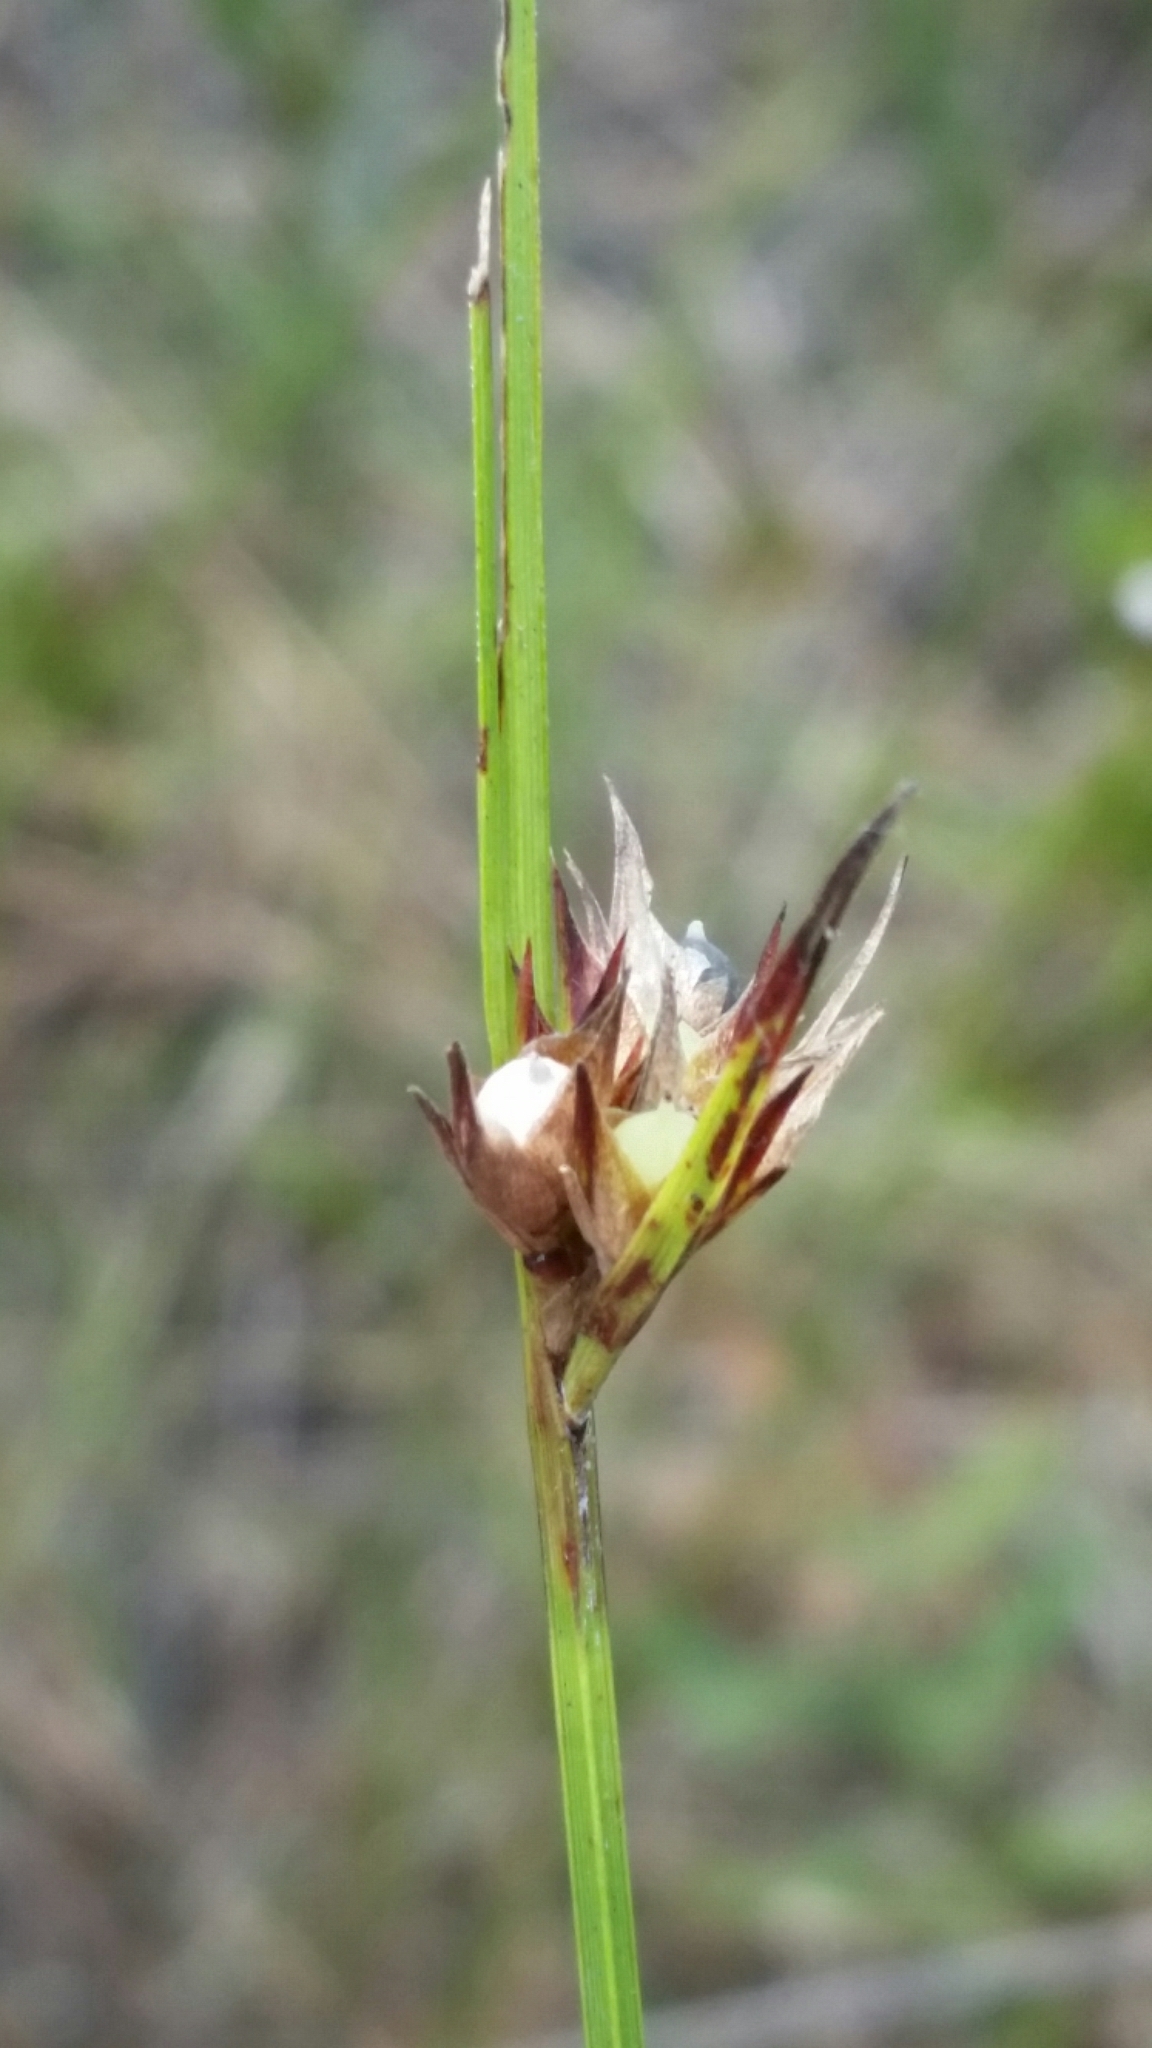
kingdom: Plantae
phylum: Tracheophyta
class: Liliopsida
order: Poales
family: Cyperaceae
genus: Scleria
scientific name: Scleria baldwinii
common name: Baldwin's nutrush
